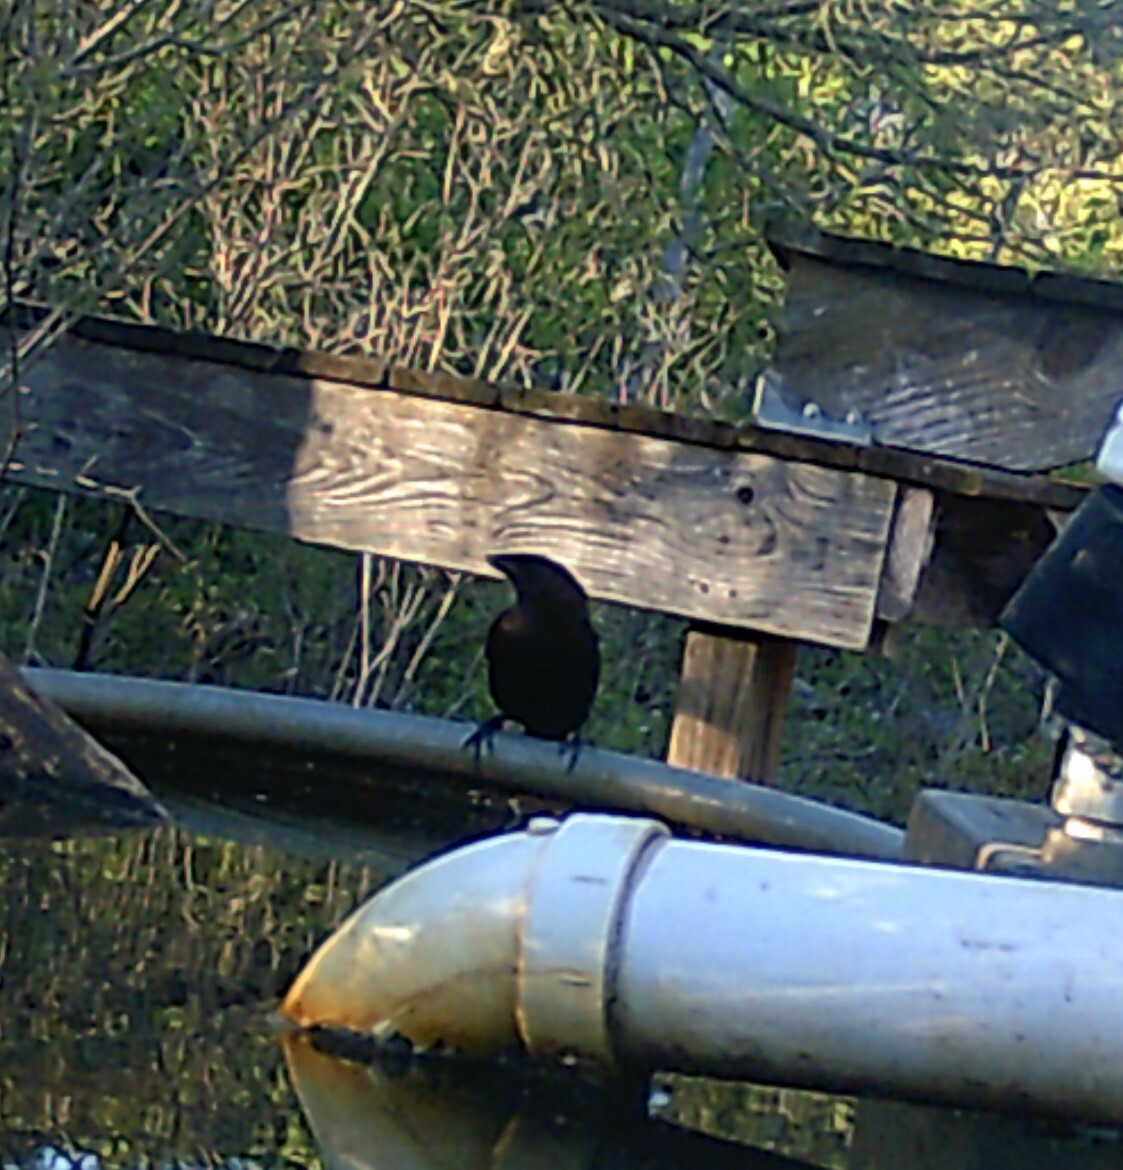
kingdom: Animalia
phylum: Chordata
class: Aves
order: Passeriformes
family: Icteridae
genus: Molothrus
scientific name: Molothrus ater
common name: Brown-headed cowbird
